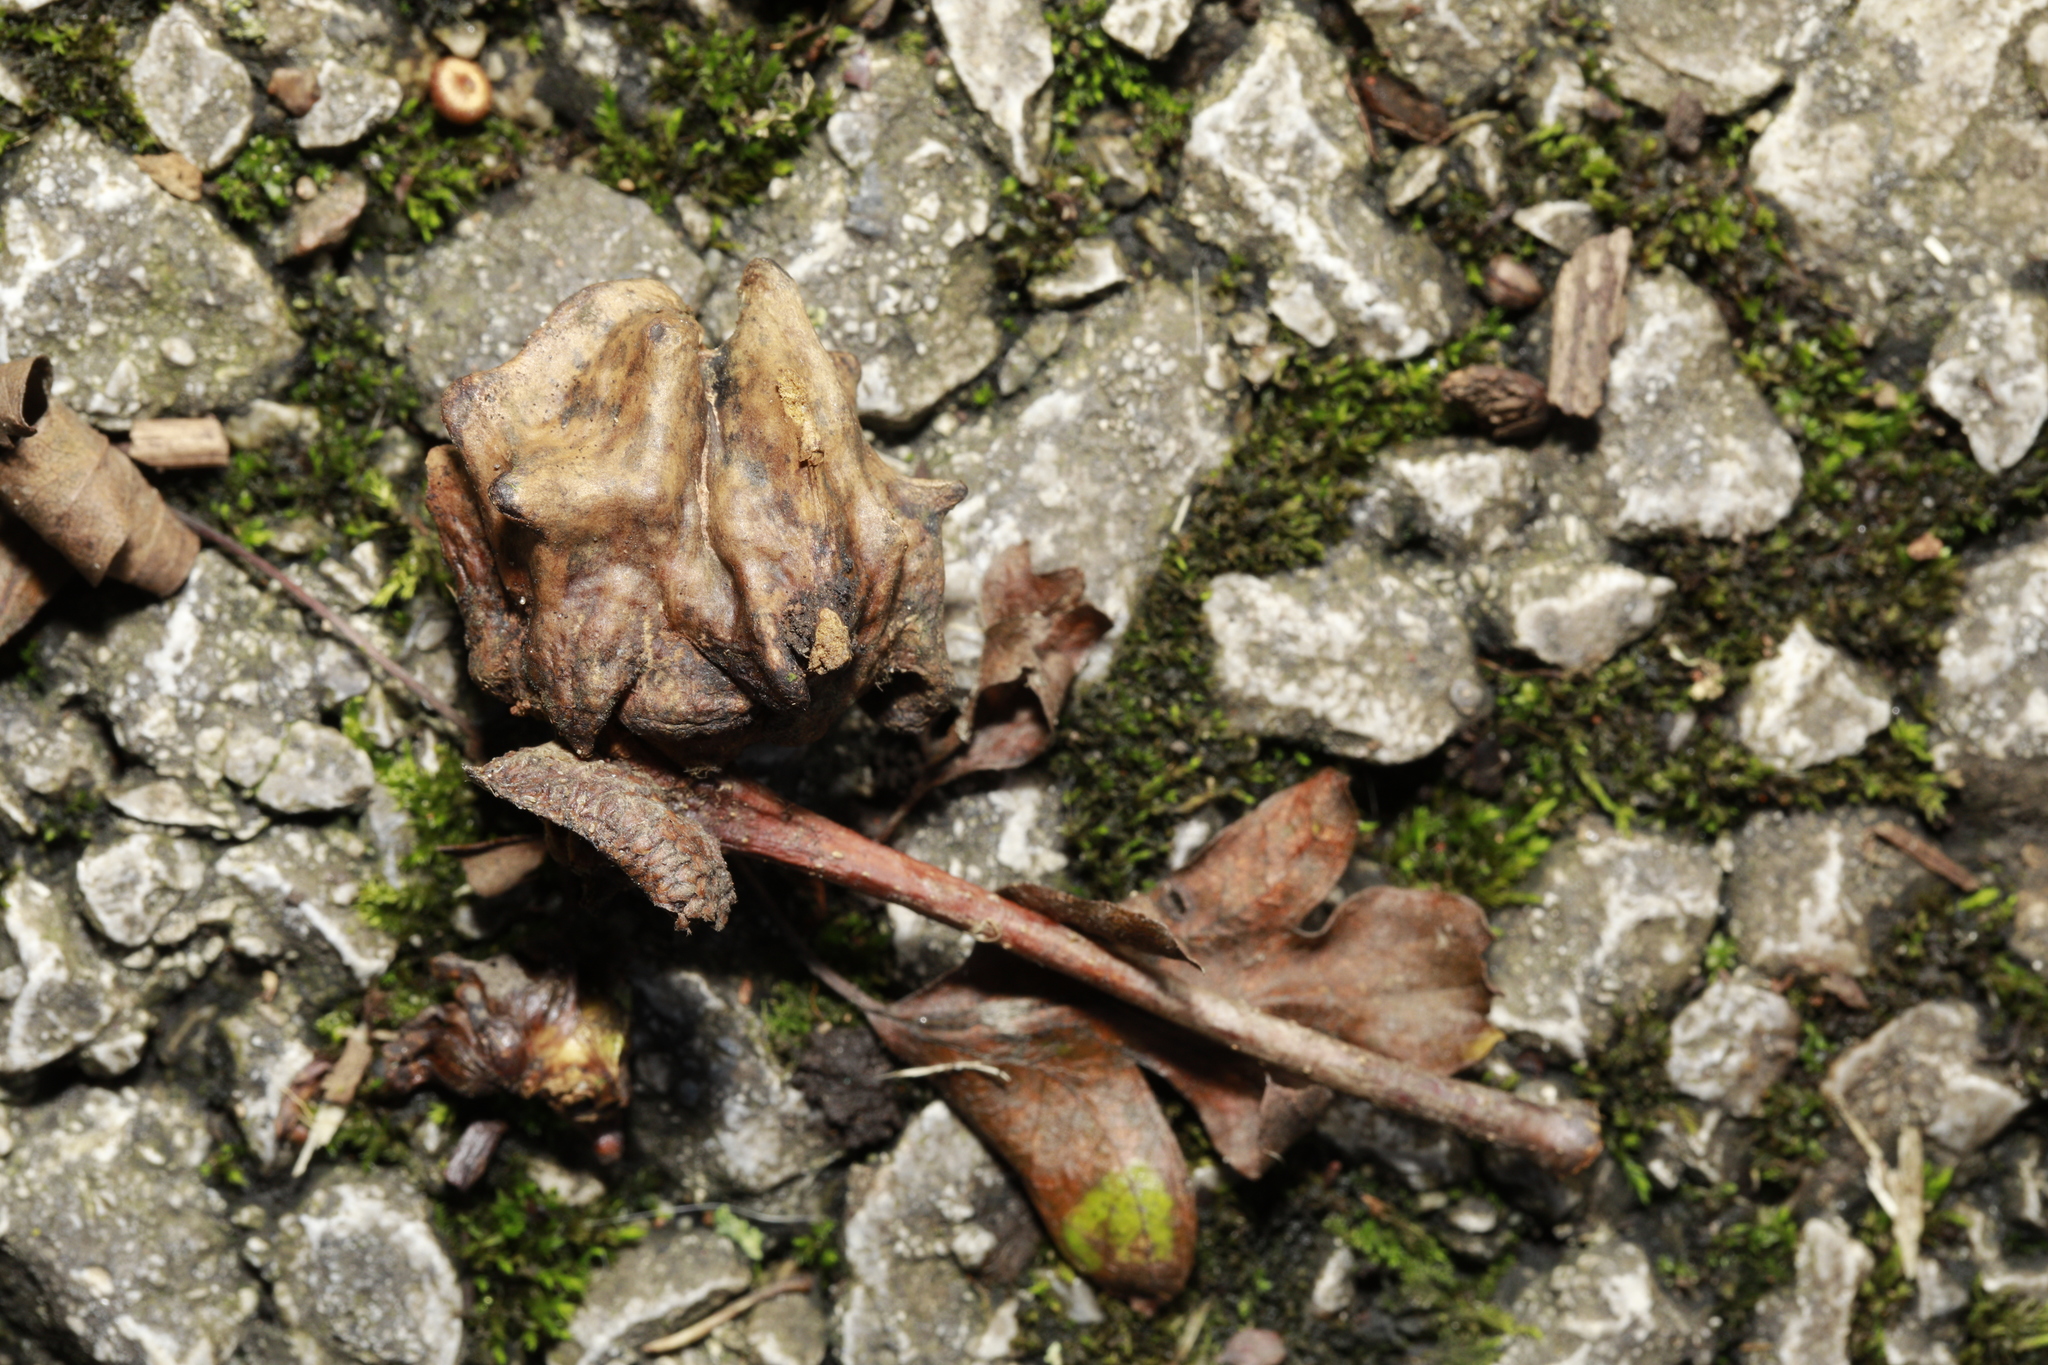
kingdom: Animalia
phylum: Arthropoda
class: Insecta
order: Hymenoptera
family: Cynipidae
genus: Andricus
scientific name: Andricus quercuscalicis
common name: Knopper gall
